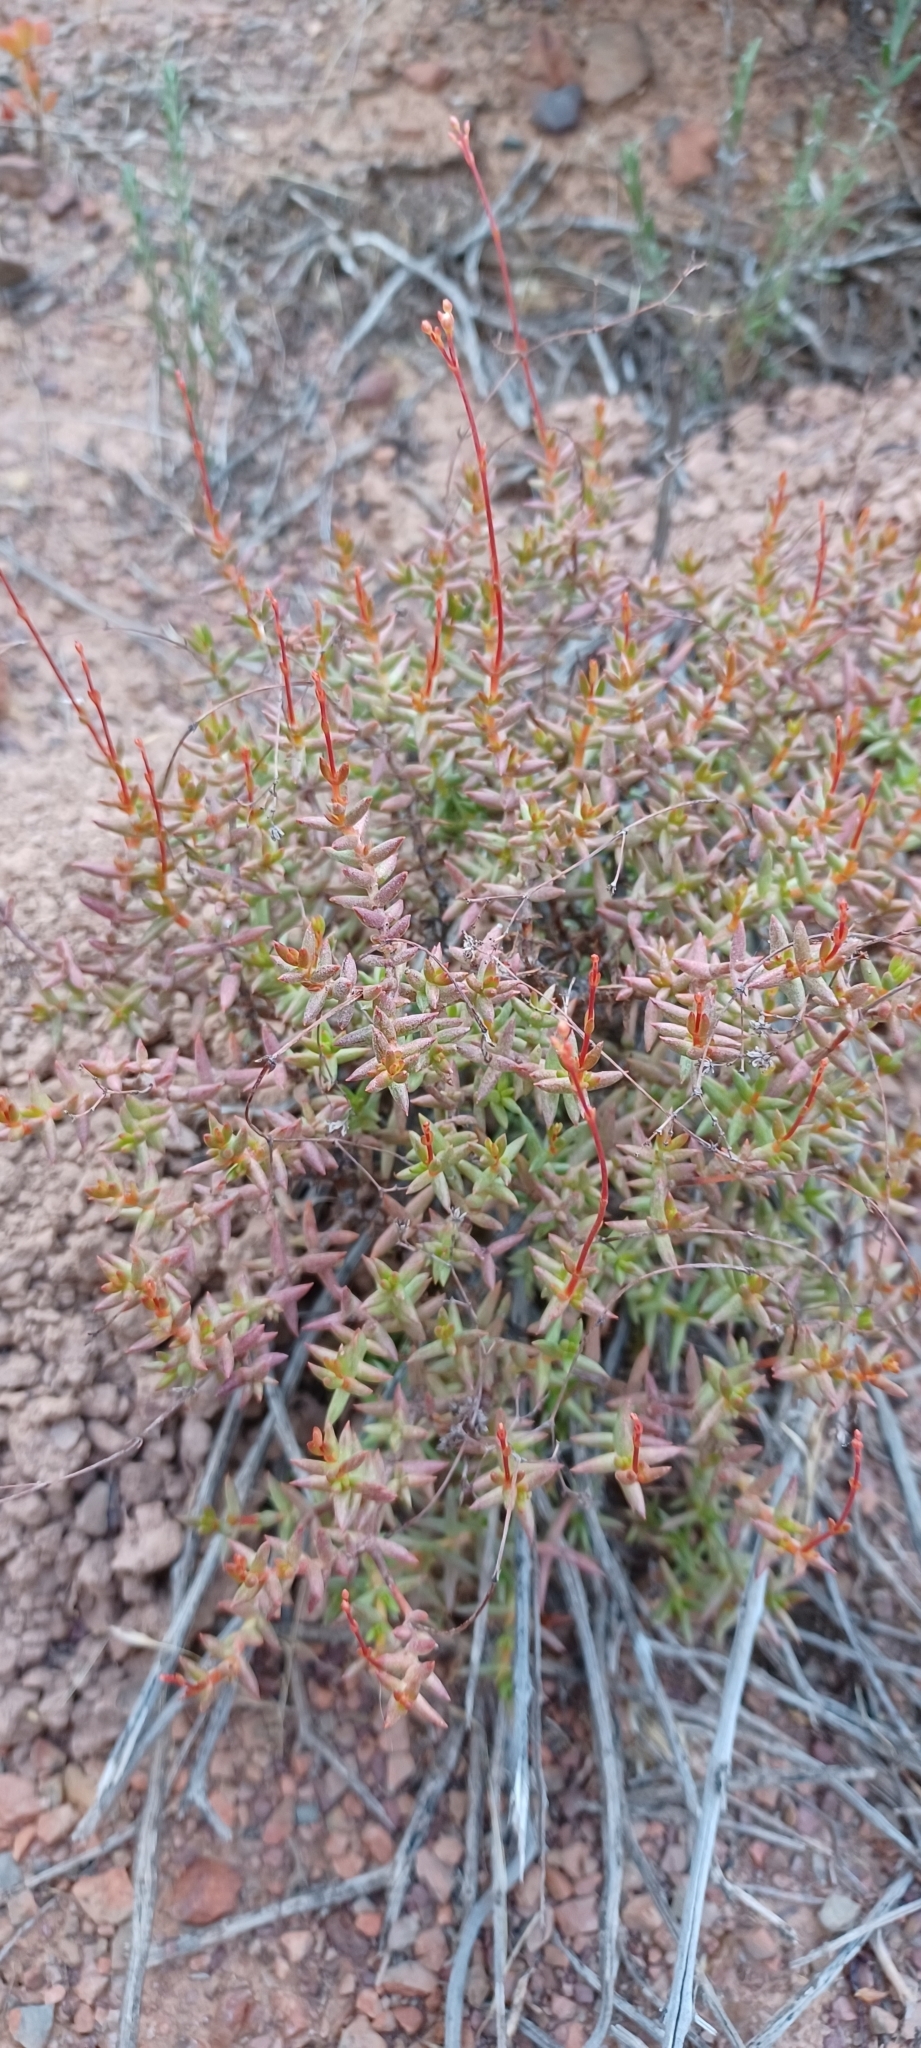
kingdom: Plantae
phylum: Tracheophyta
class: Magnoliopsida
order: Saxifragales
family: Crassulaceae
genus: Crassula
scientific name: Crassula tetragona
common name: Pygmyweed
